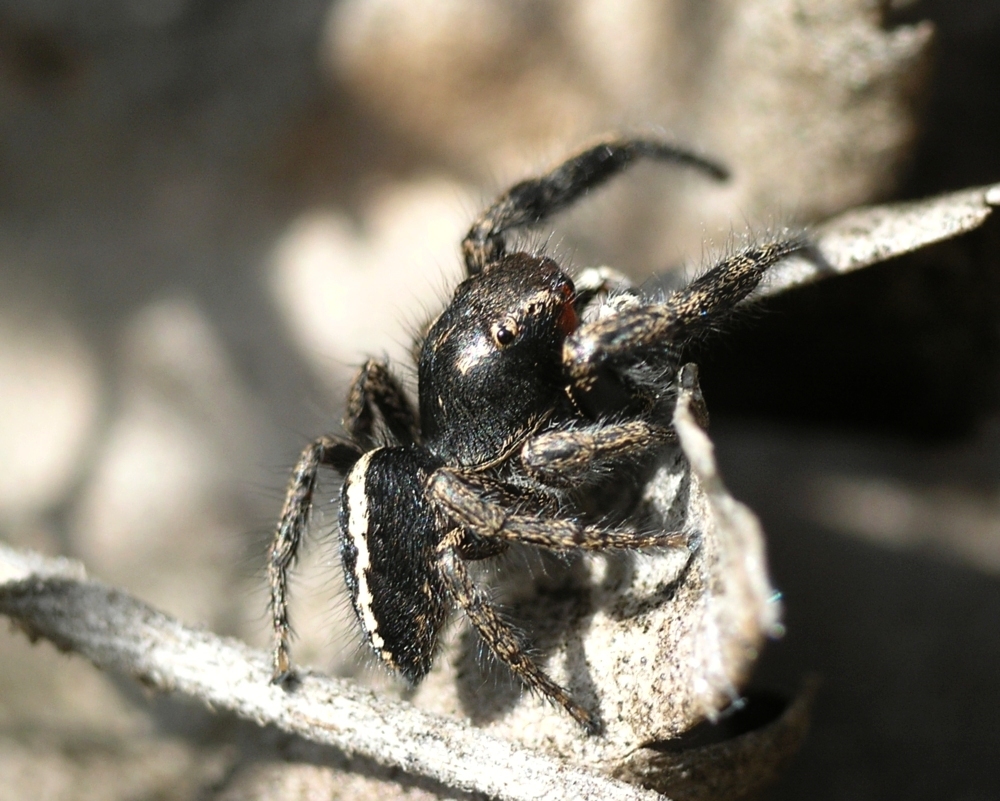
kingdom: Animalia
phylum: Arthropoda
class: Arachnida
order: Araneae
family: Salticidae
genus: Pellenes
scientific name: Pellenes seriatus
